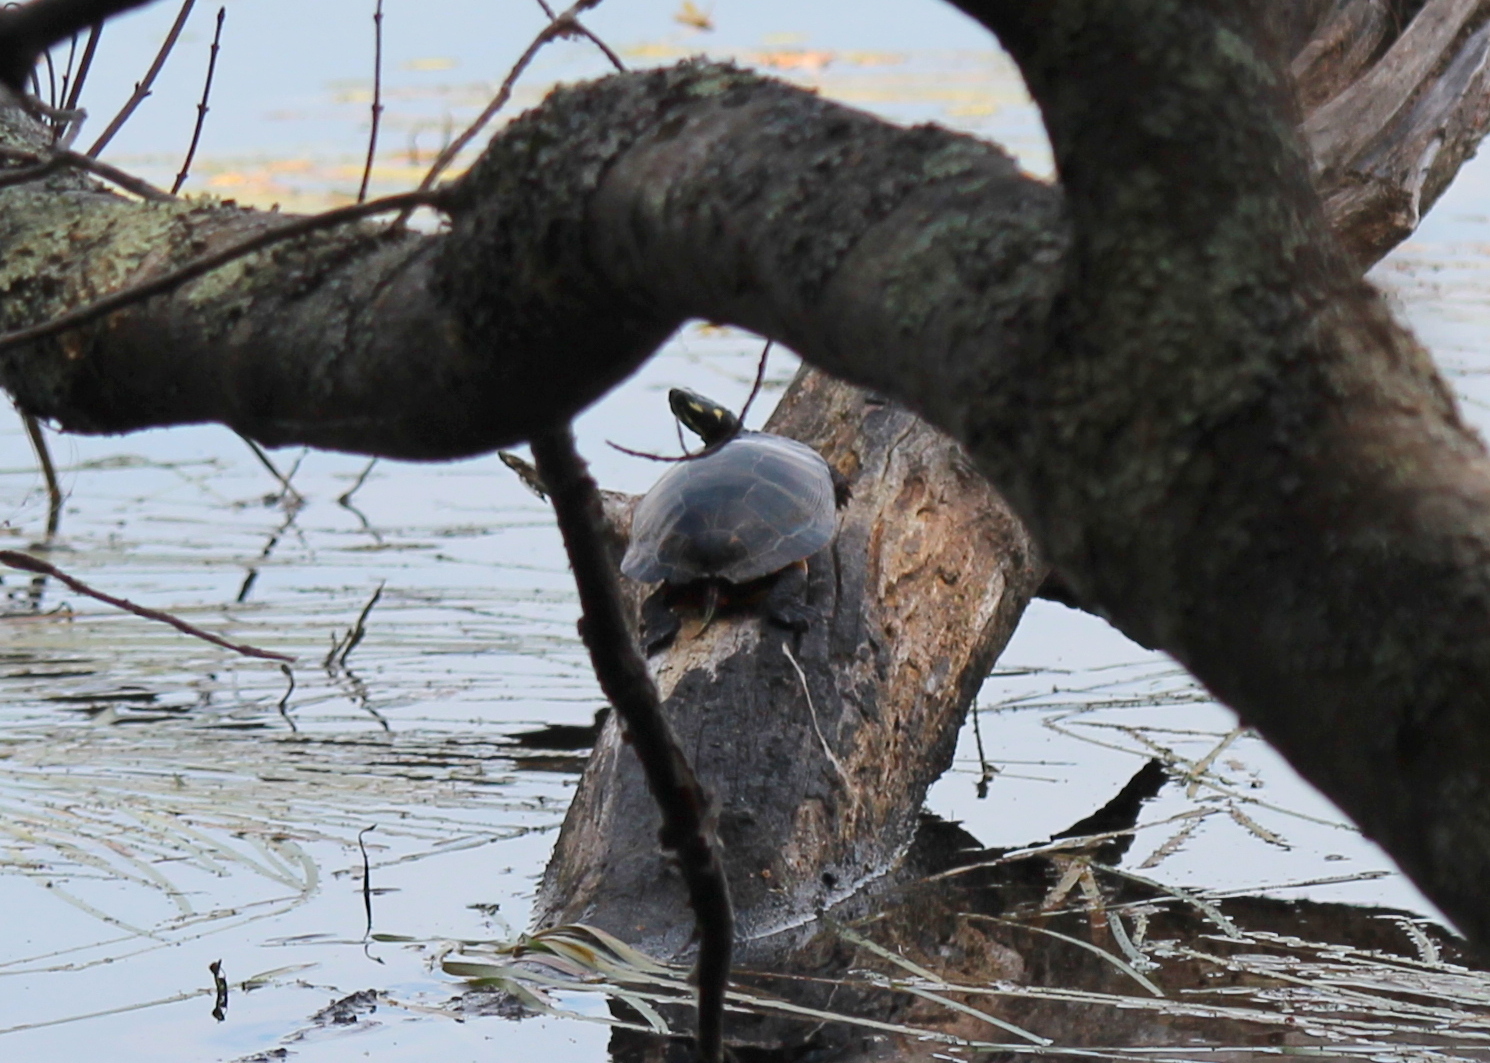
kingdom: Animalia
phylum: Chordata
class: Testudines
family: Emydidae
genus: Chrysemys
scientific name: Chrysemys picta
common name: Painted turtle
